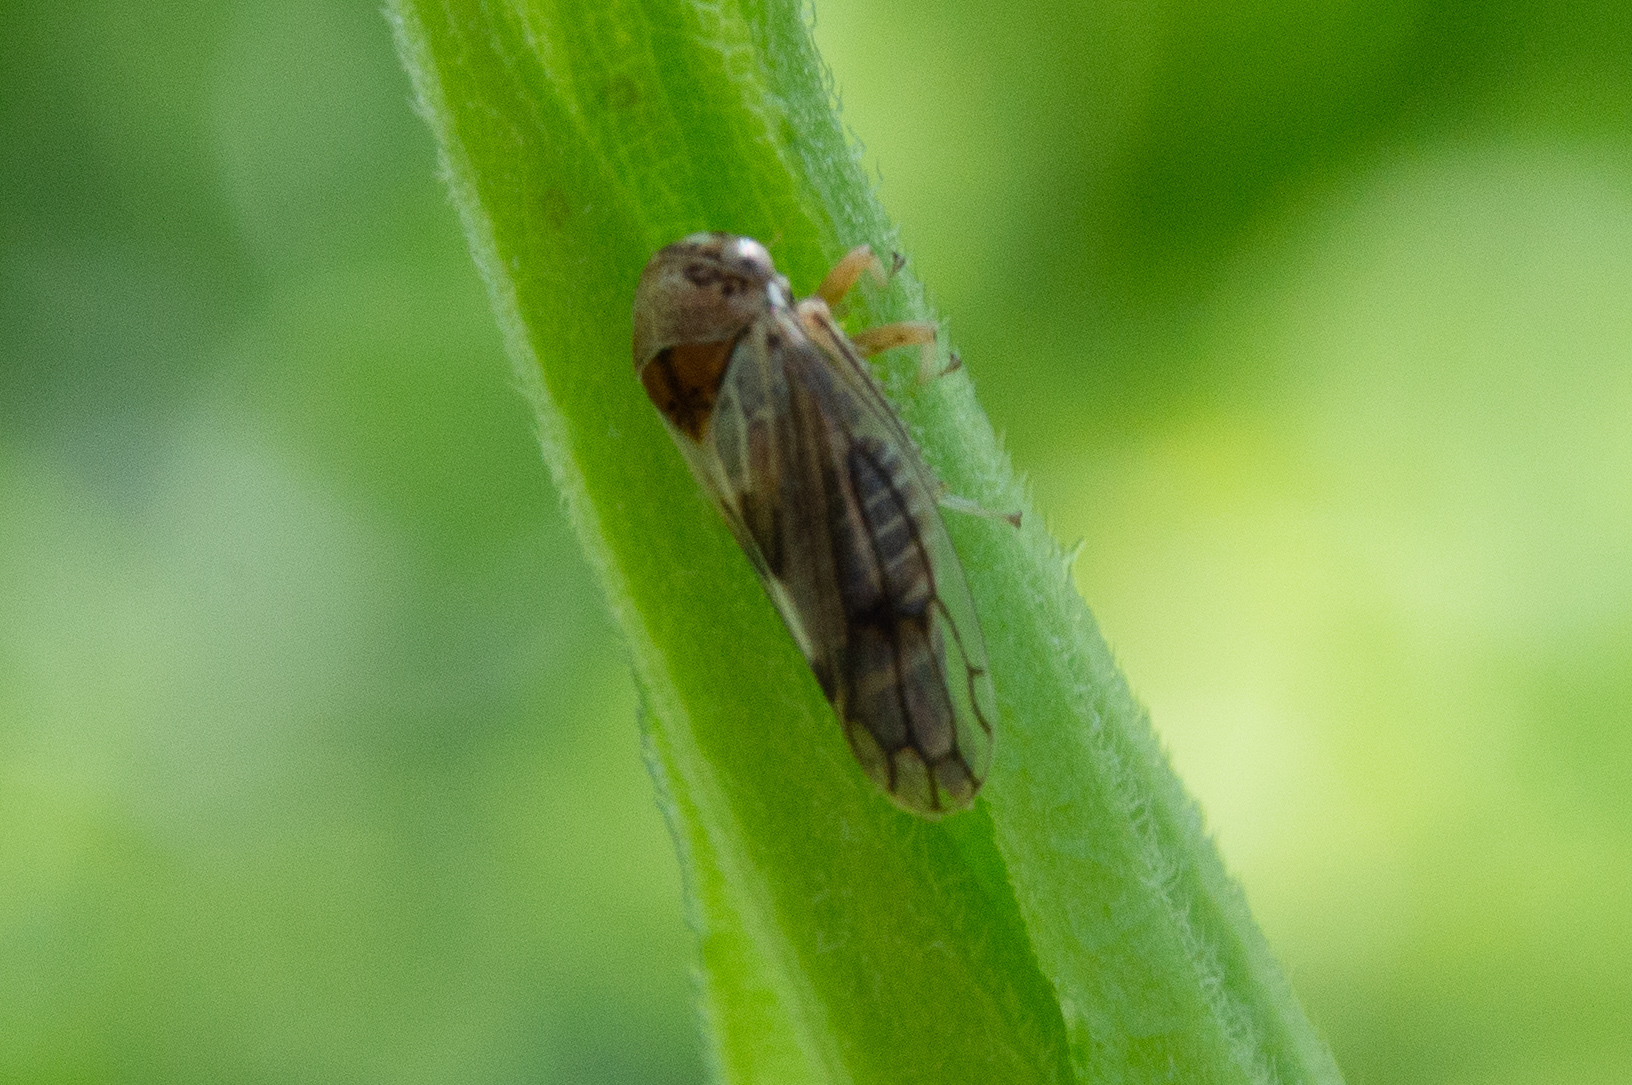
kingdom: Animalia
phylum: Arthropoda
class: Insecta
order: Hemiptera
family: Cicadellidae
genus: Oncopsis
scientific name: Oncopsis
